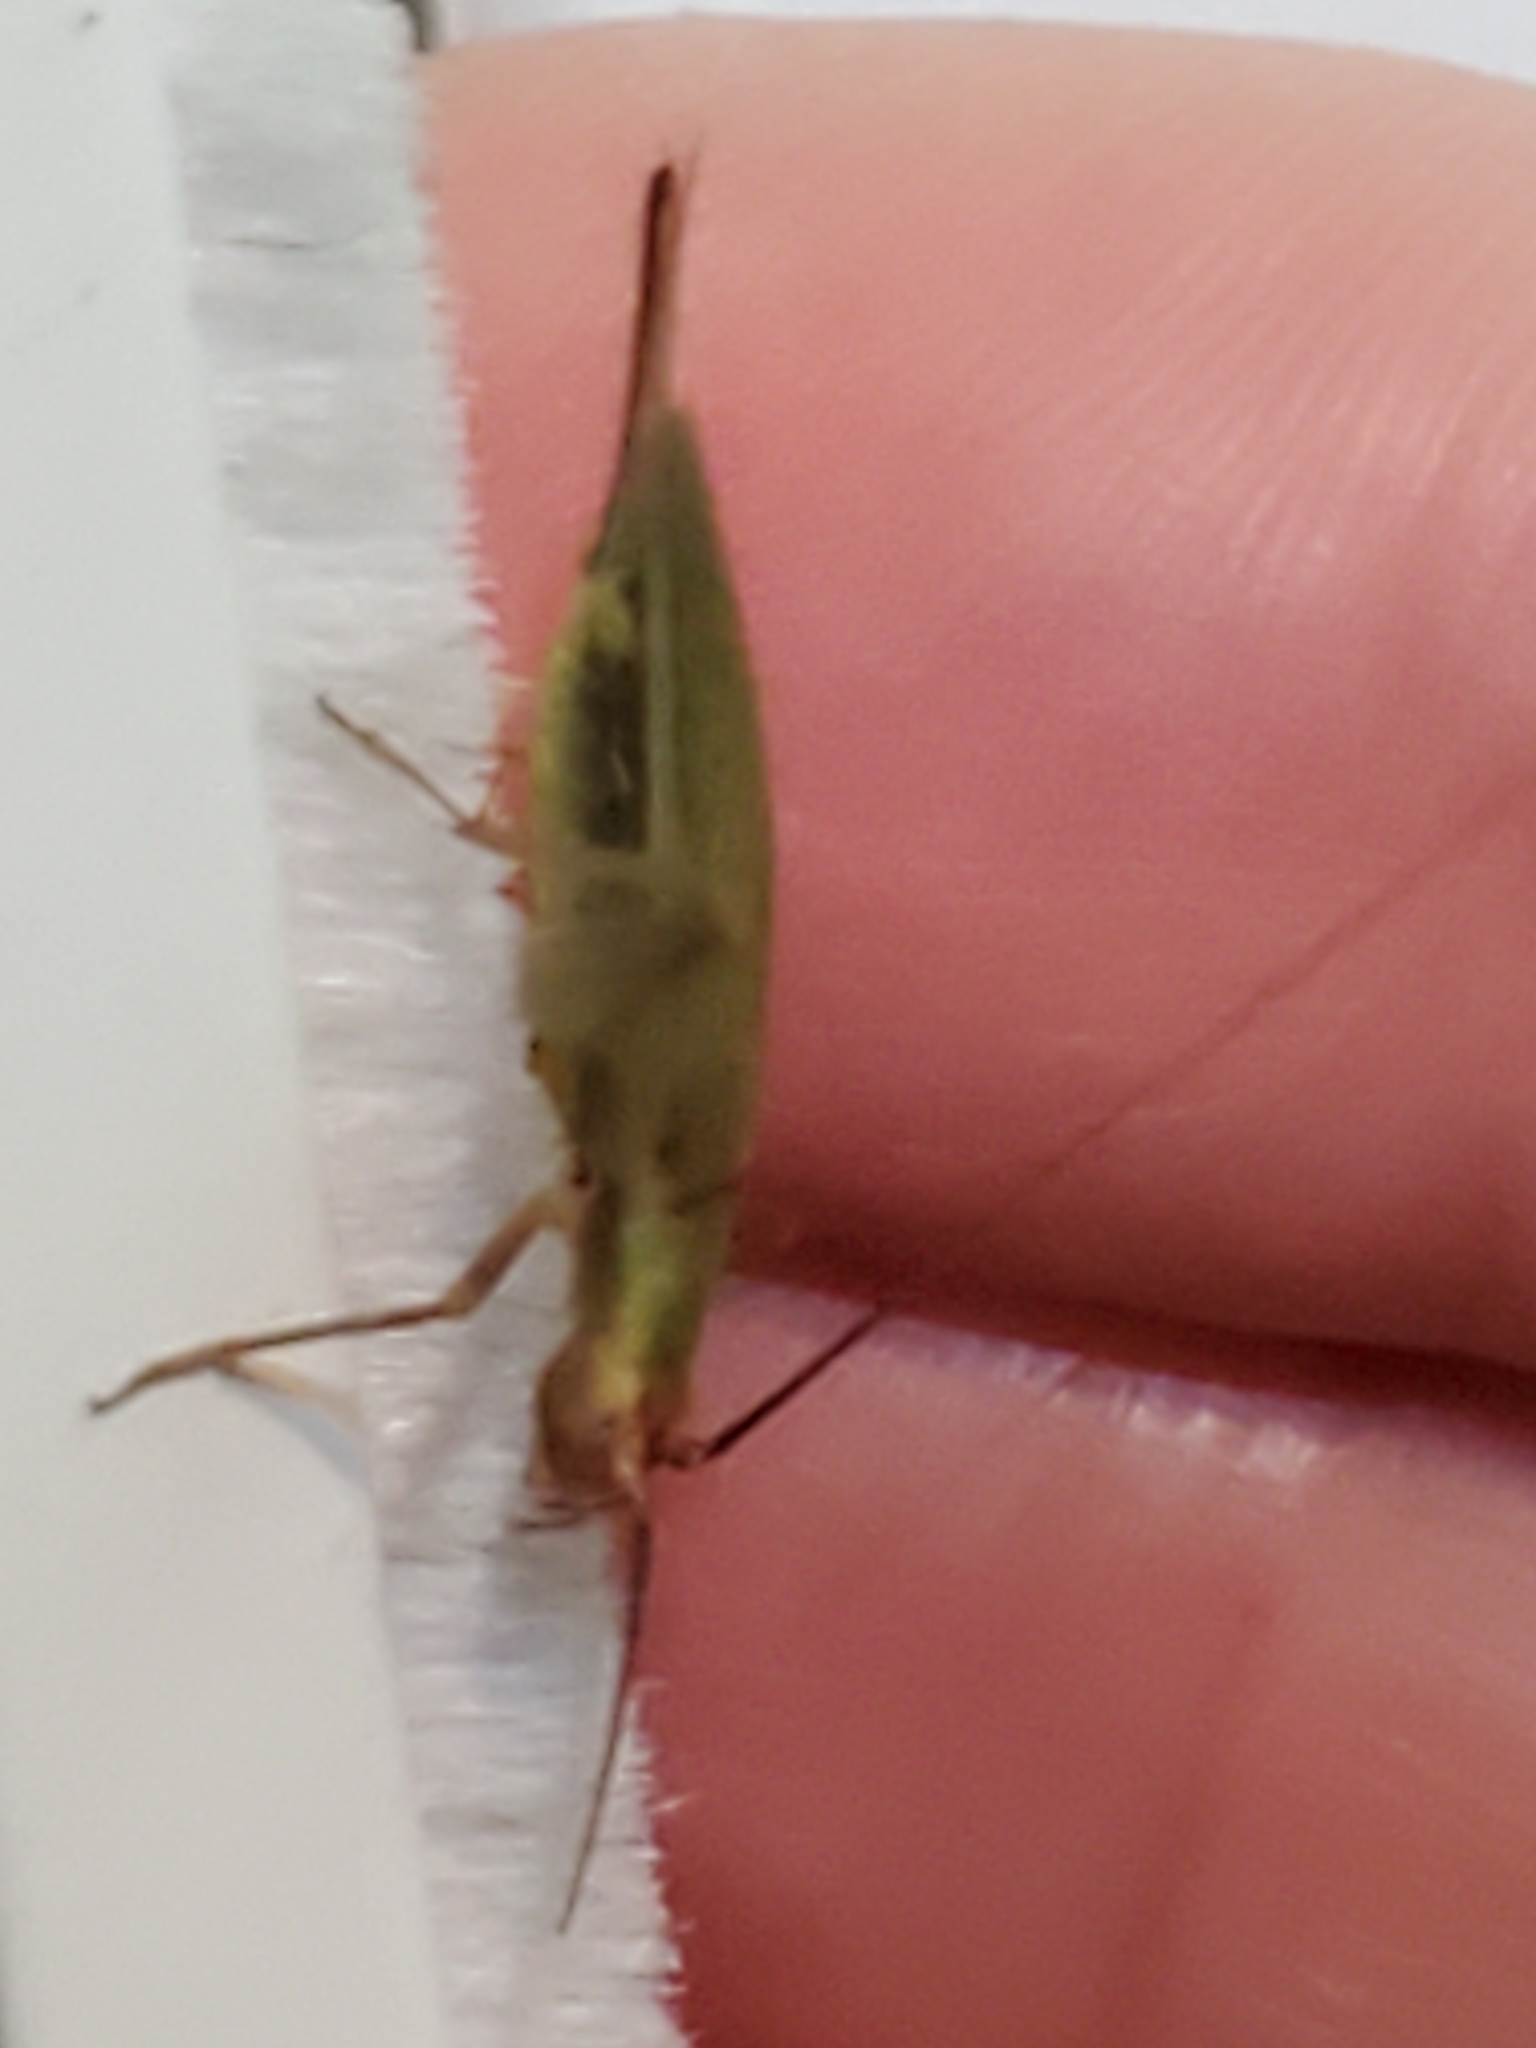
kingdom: Animalia
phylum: Arthropoda
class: Insecta
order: Orthoptera
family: Gryllidae
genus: Oecanthus
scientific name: Oecanthus californicus
